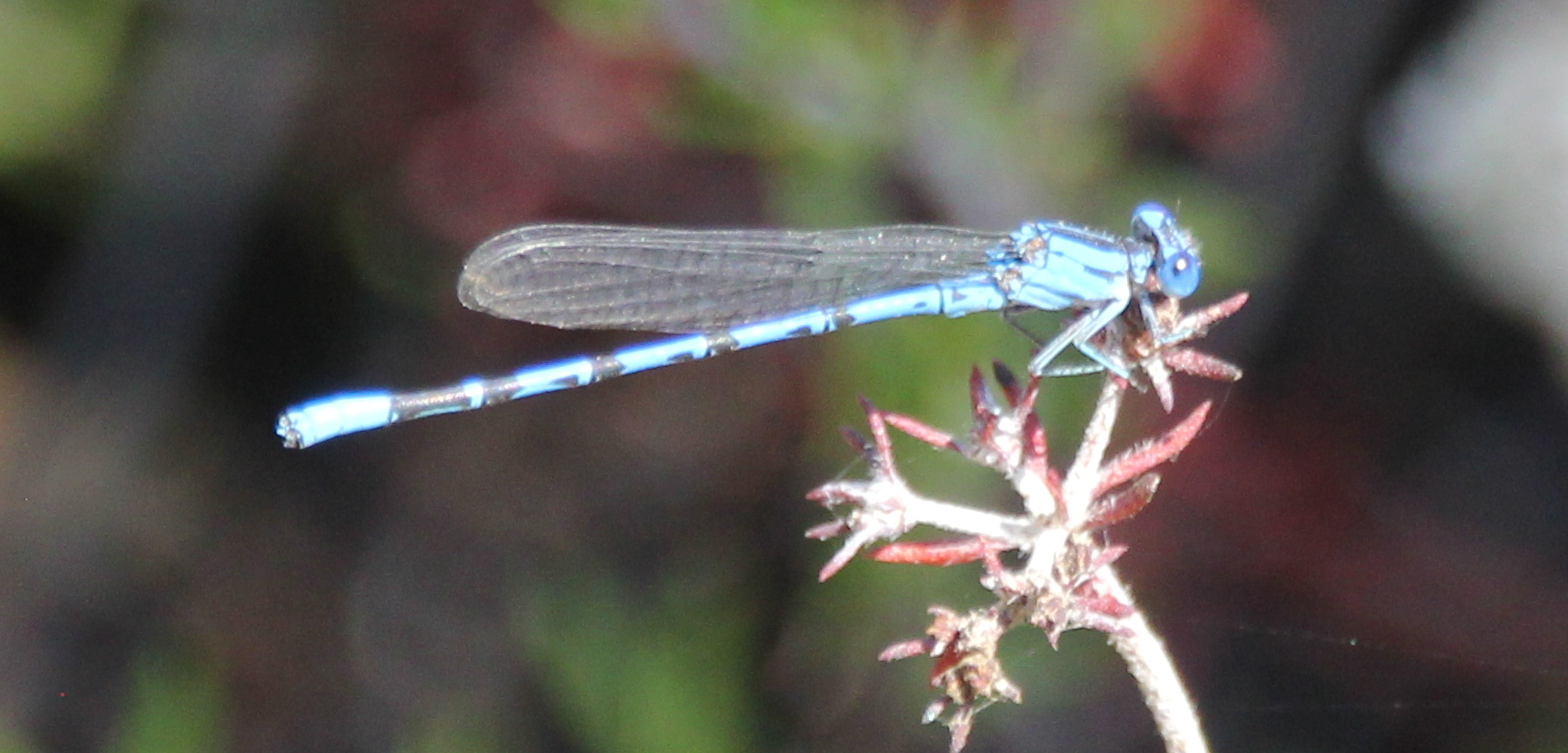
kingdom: Animalia
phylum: Arthropoda
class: Insecta
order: Odonata
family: Coenagrionidae
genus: Argia
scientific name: Argia vivida
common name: Vivid dancer
